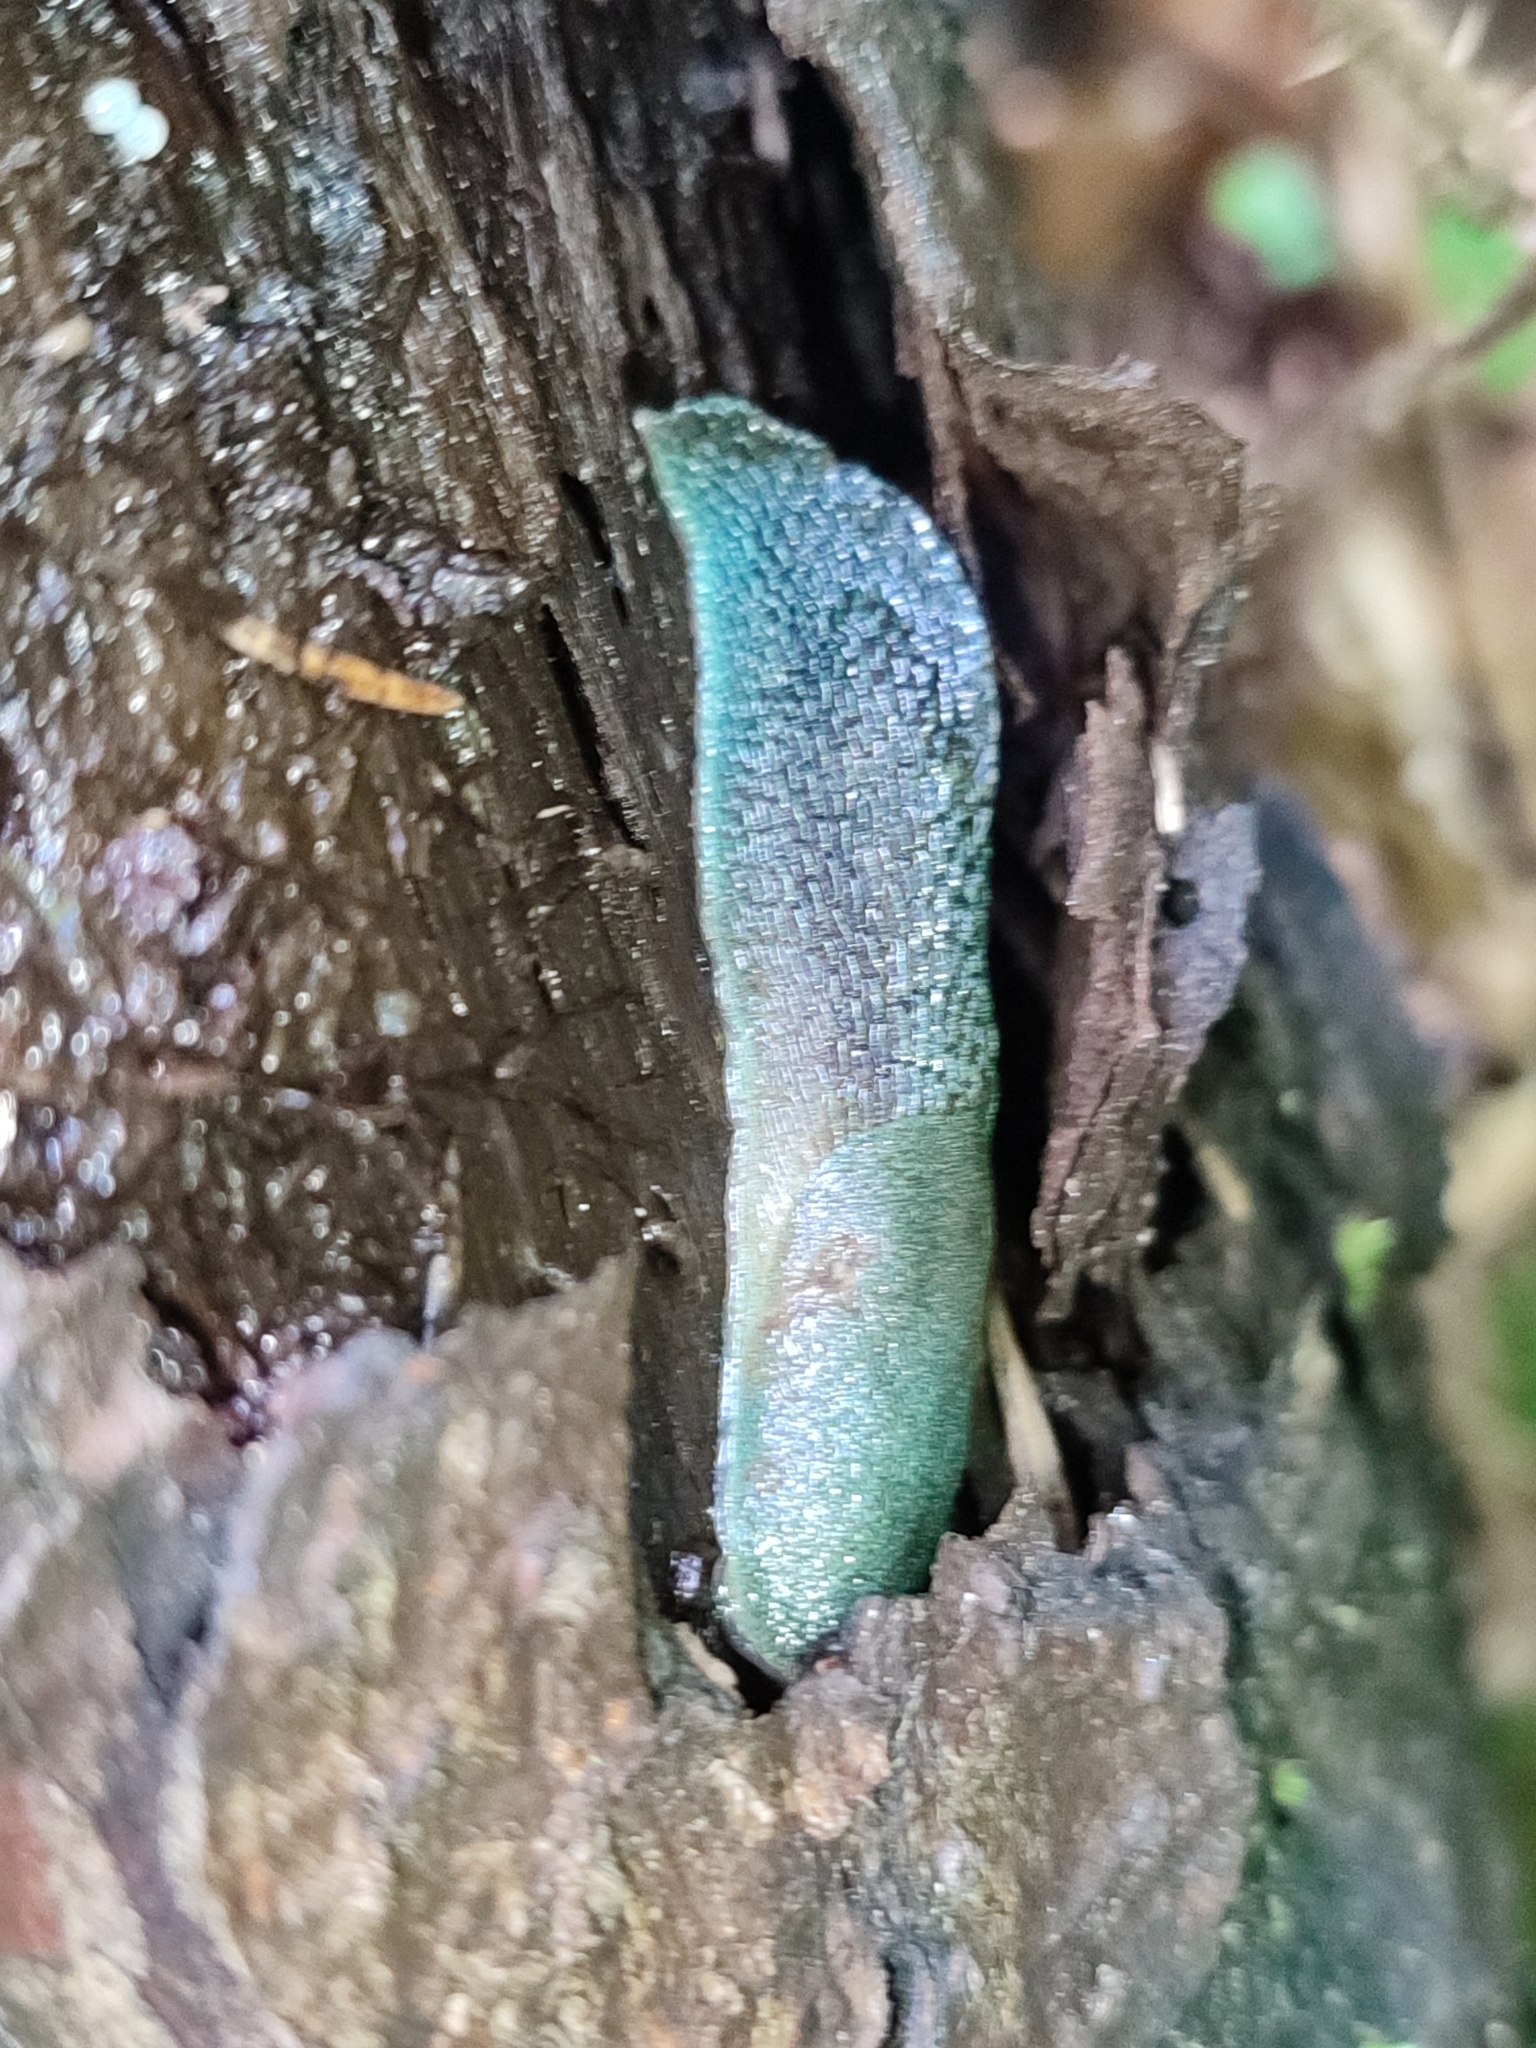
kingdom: Animalia
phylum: Mollusca
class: Gastropoda
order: Stylommatophora
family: Limacidae
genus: Bielzia
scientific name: Bielzia coerulans
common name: Carpathian blue slug
